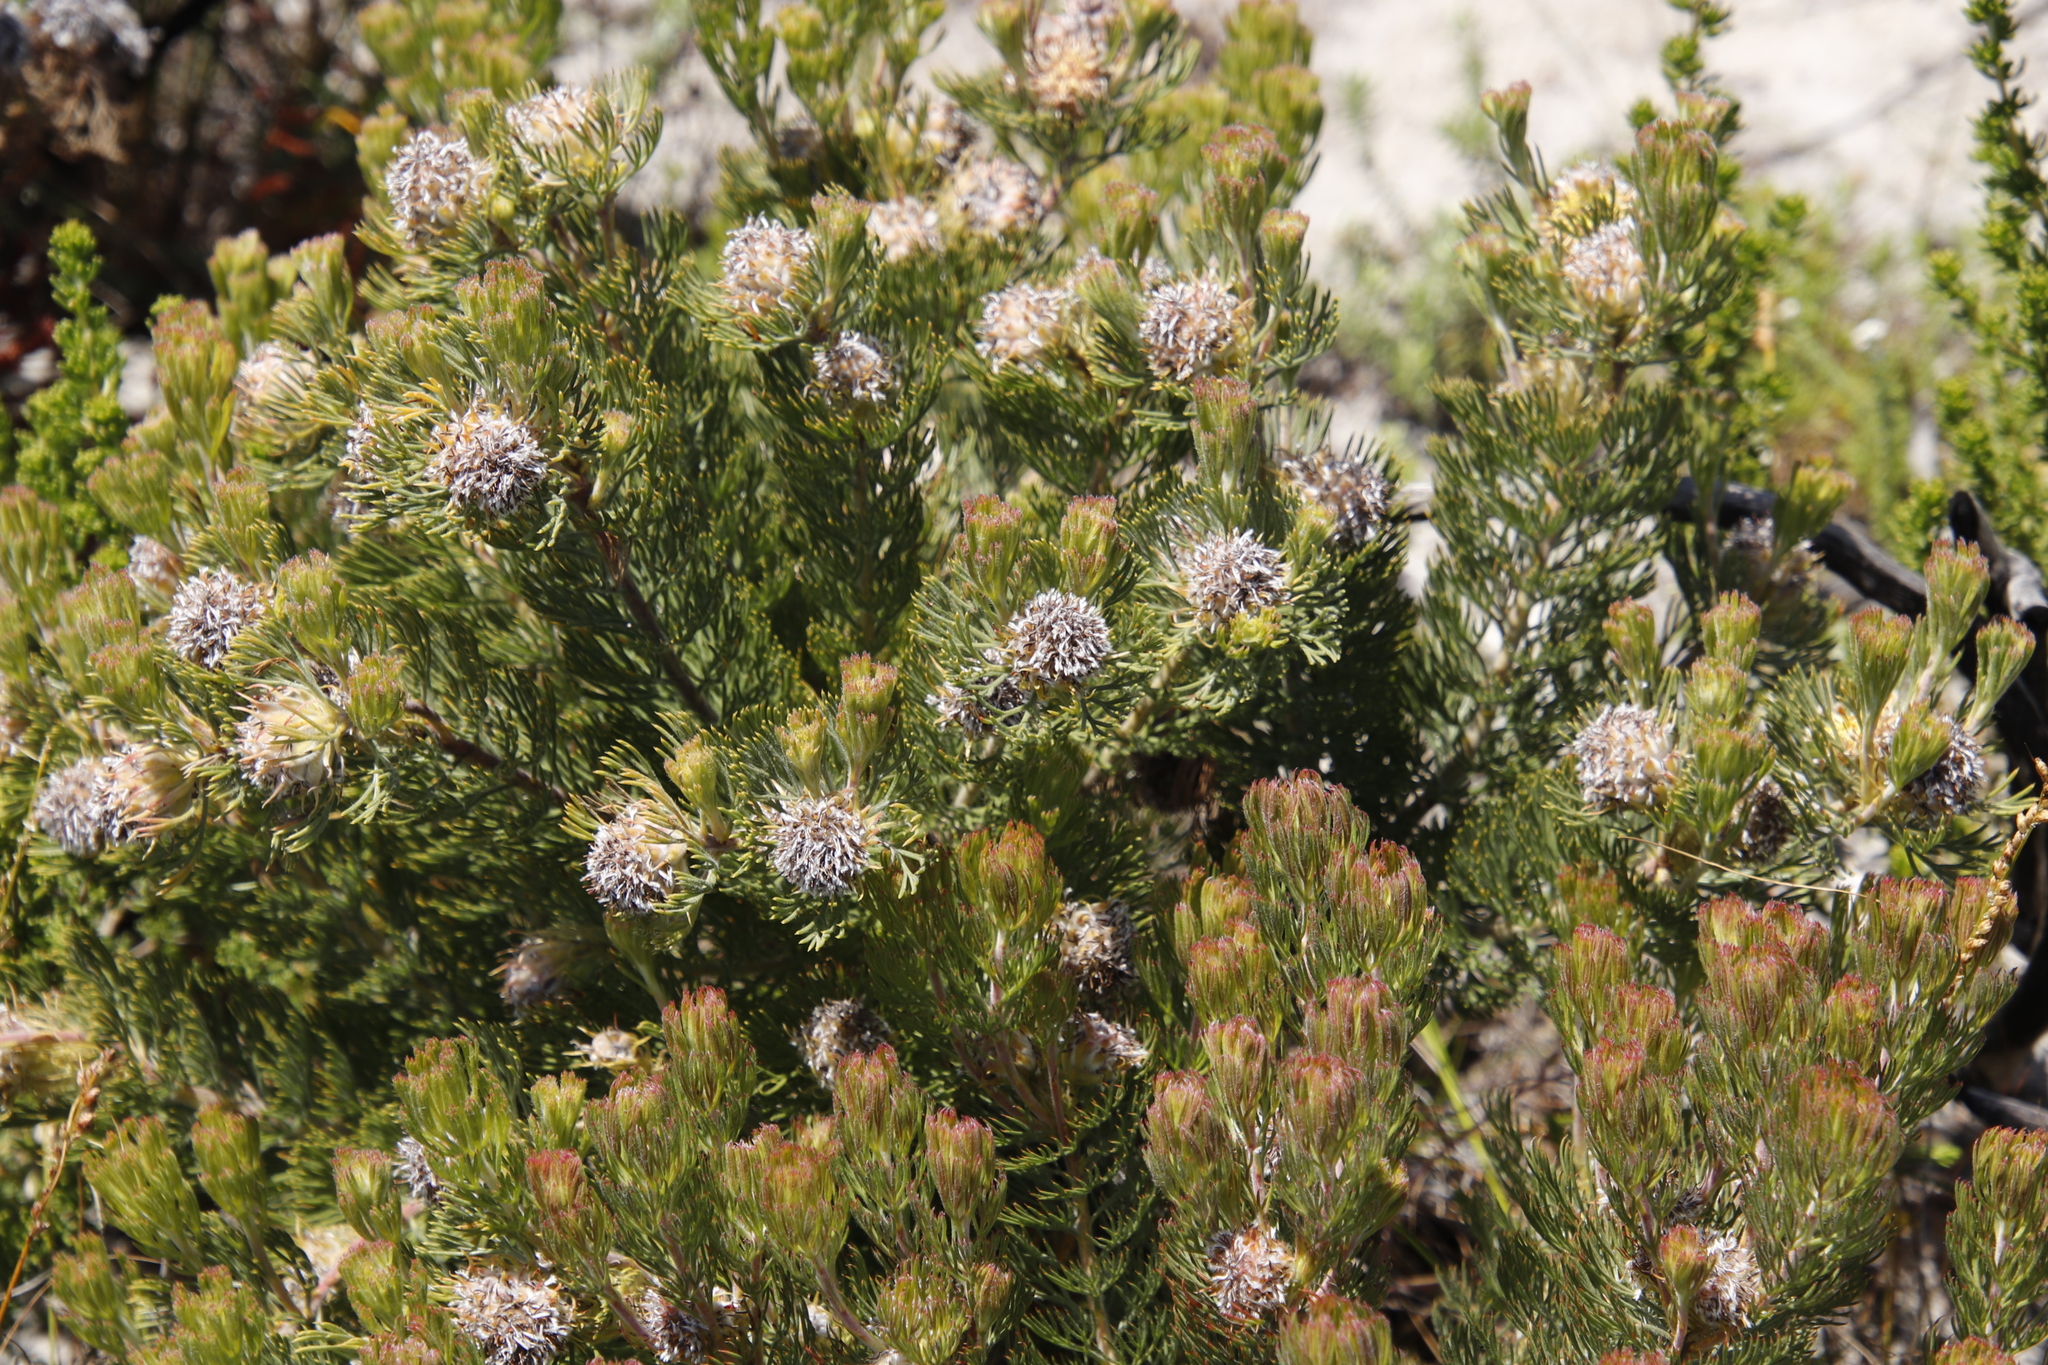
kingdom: Plantae
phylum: Tracheophyta
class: Magnoliopsida
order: Proteales
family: Proteaceae
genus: Serruria
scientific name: Serruria villosa
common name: Golden spiderhead
